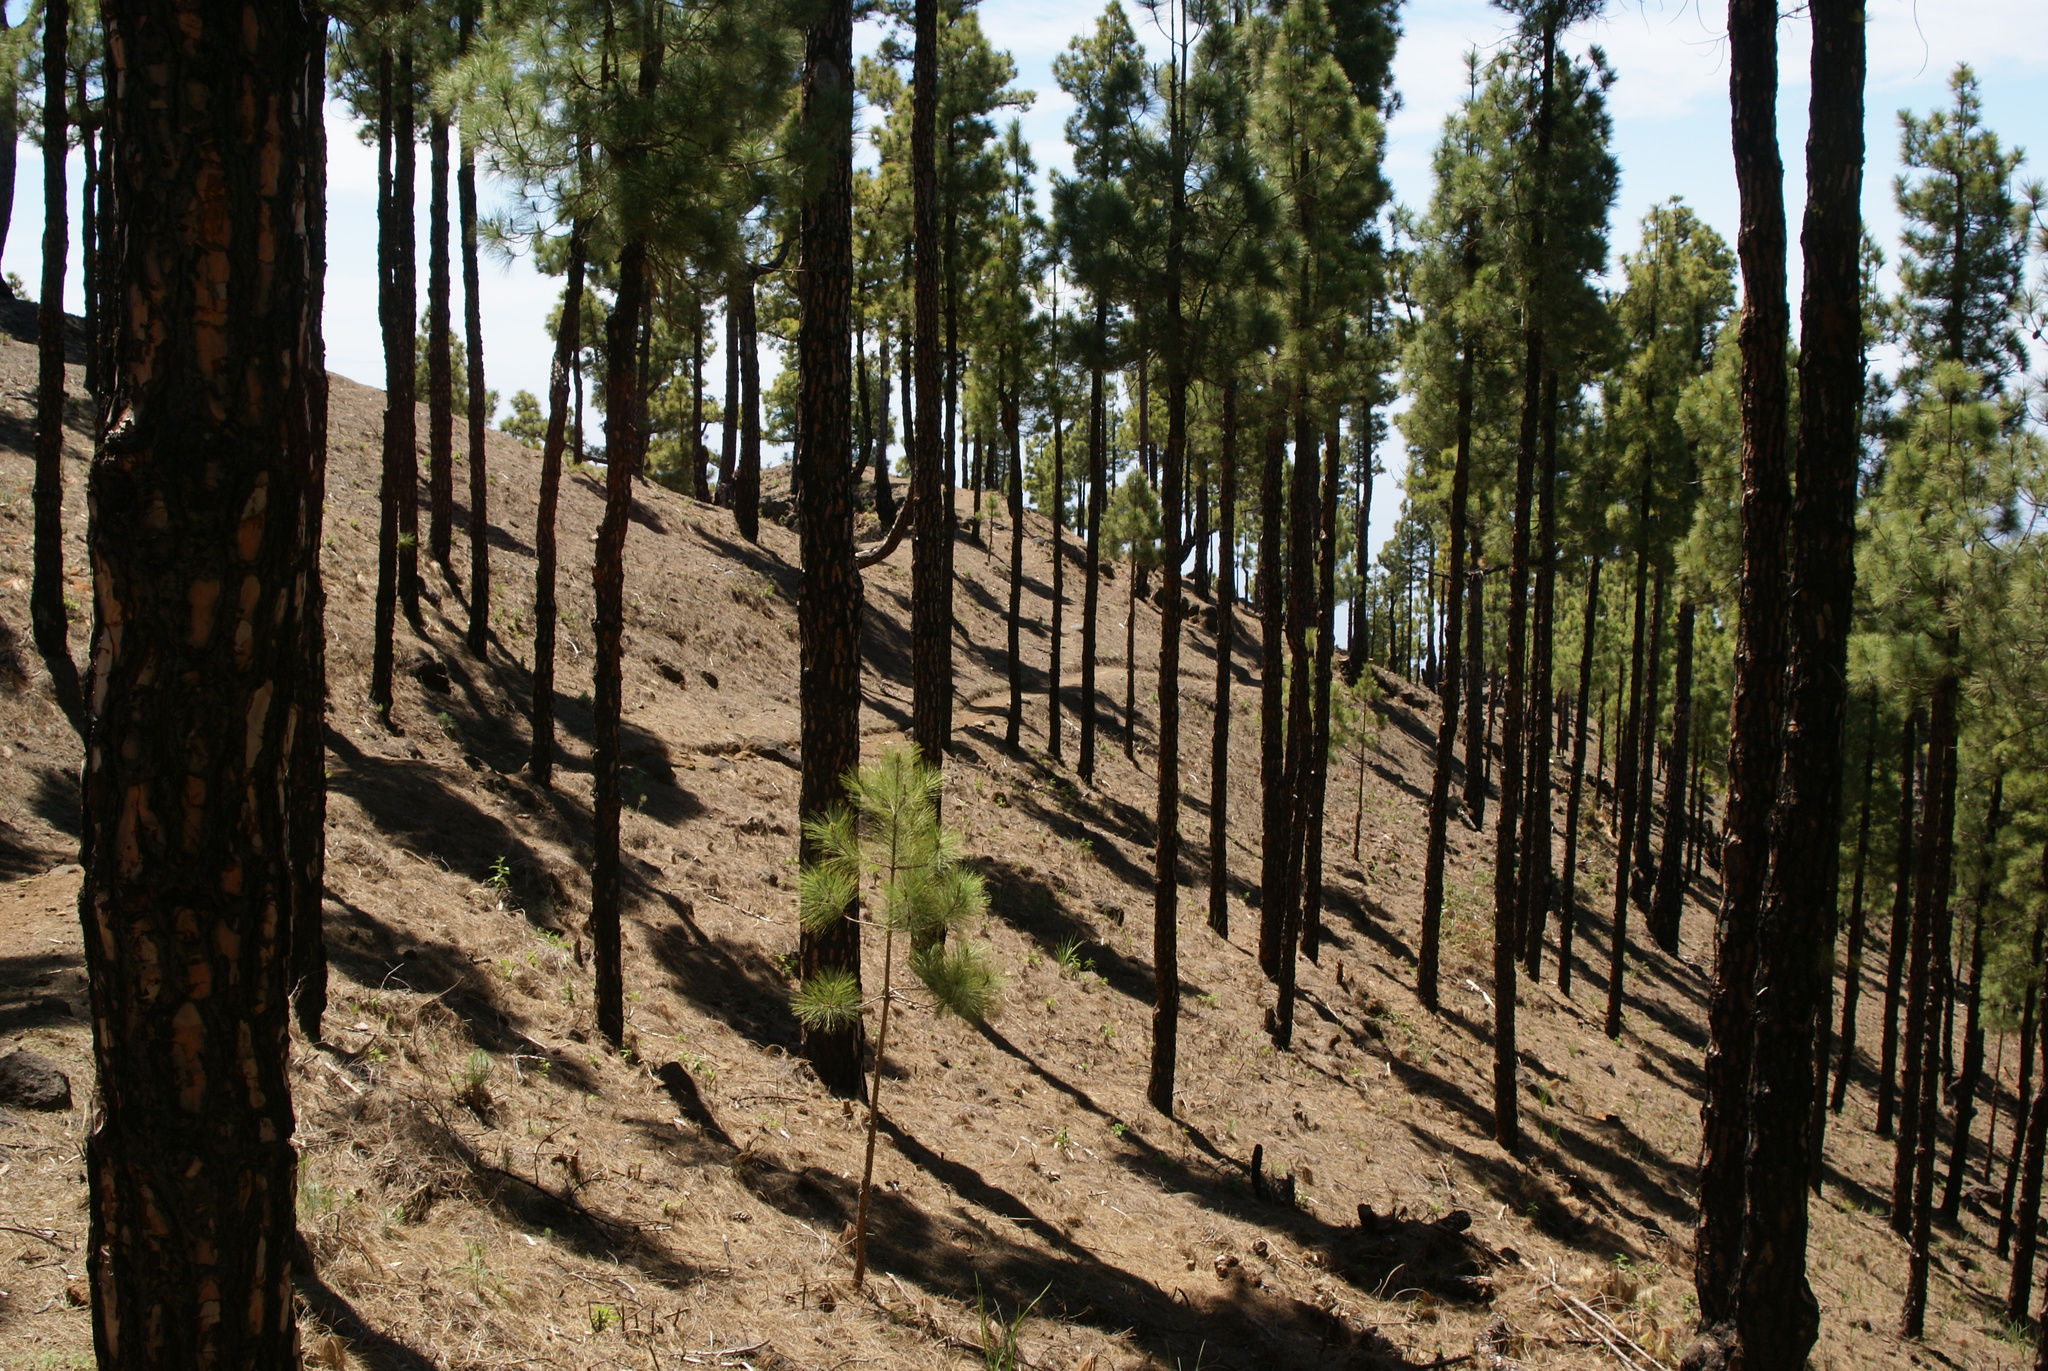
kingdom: Plantae
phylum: Tracheophyta
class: Pinopsida
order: Pinales
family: Pinaceae
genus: Pinus
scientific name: Pinus canariensis
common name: Canary islands pine
